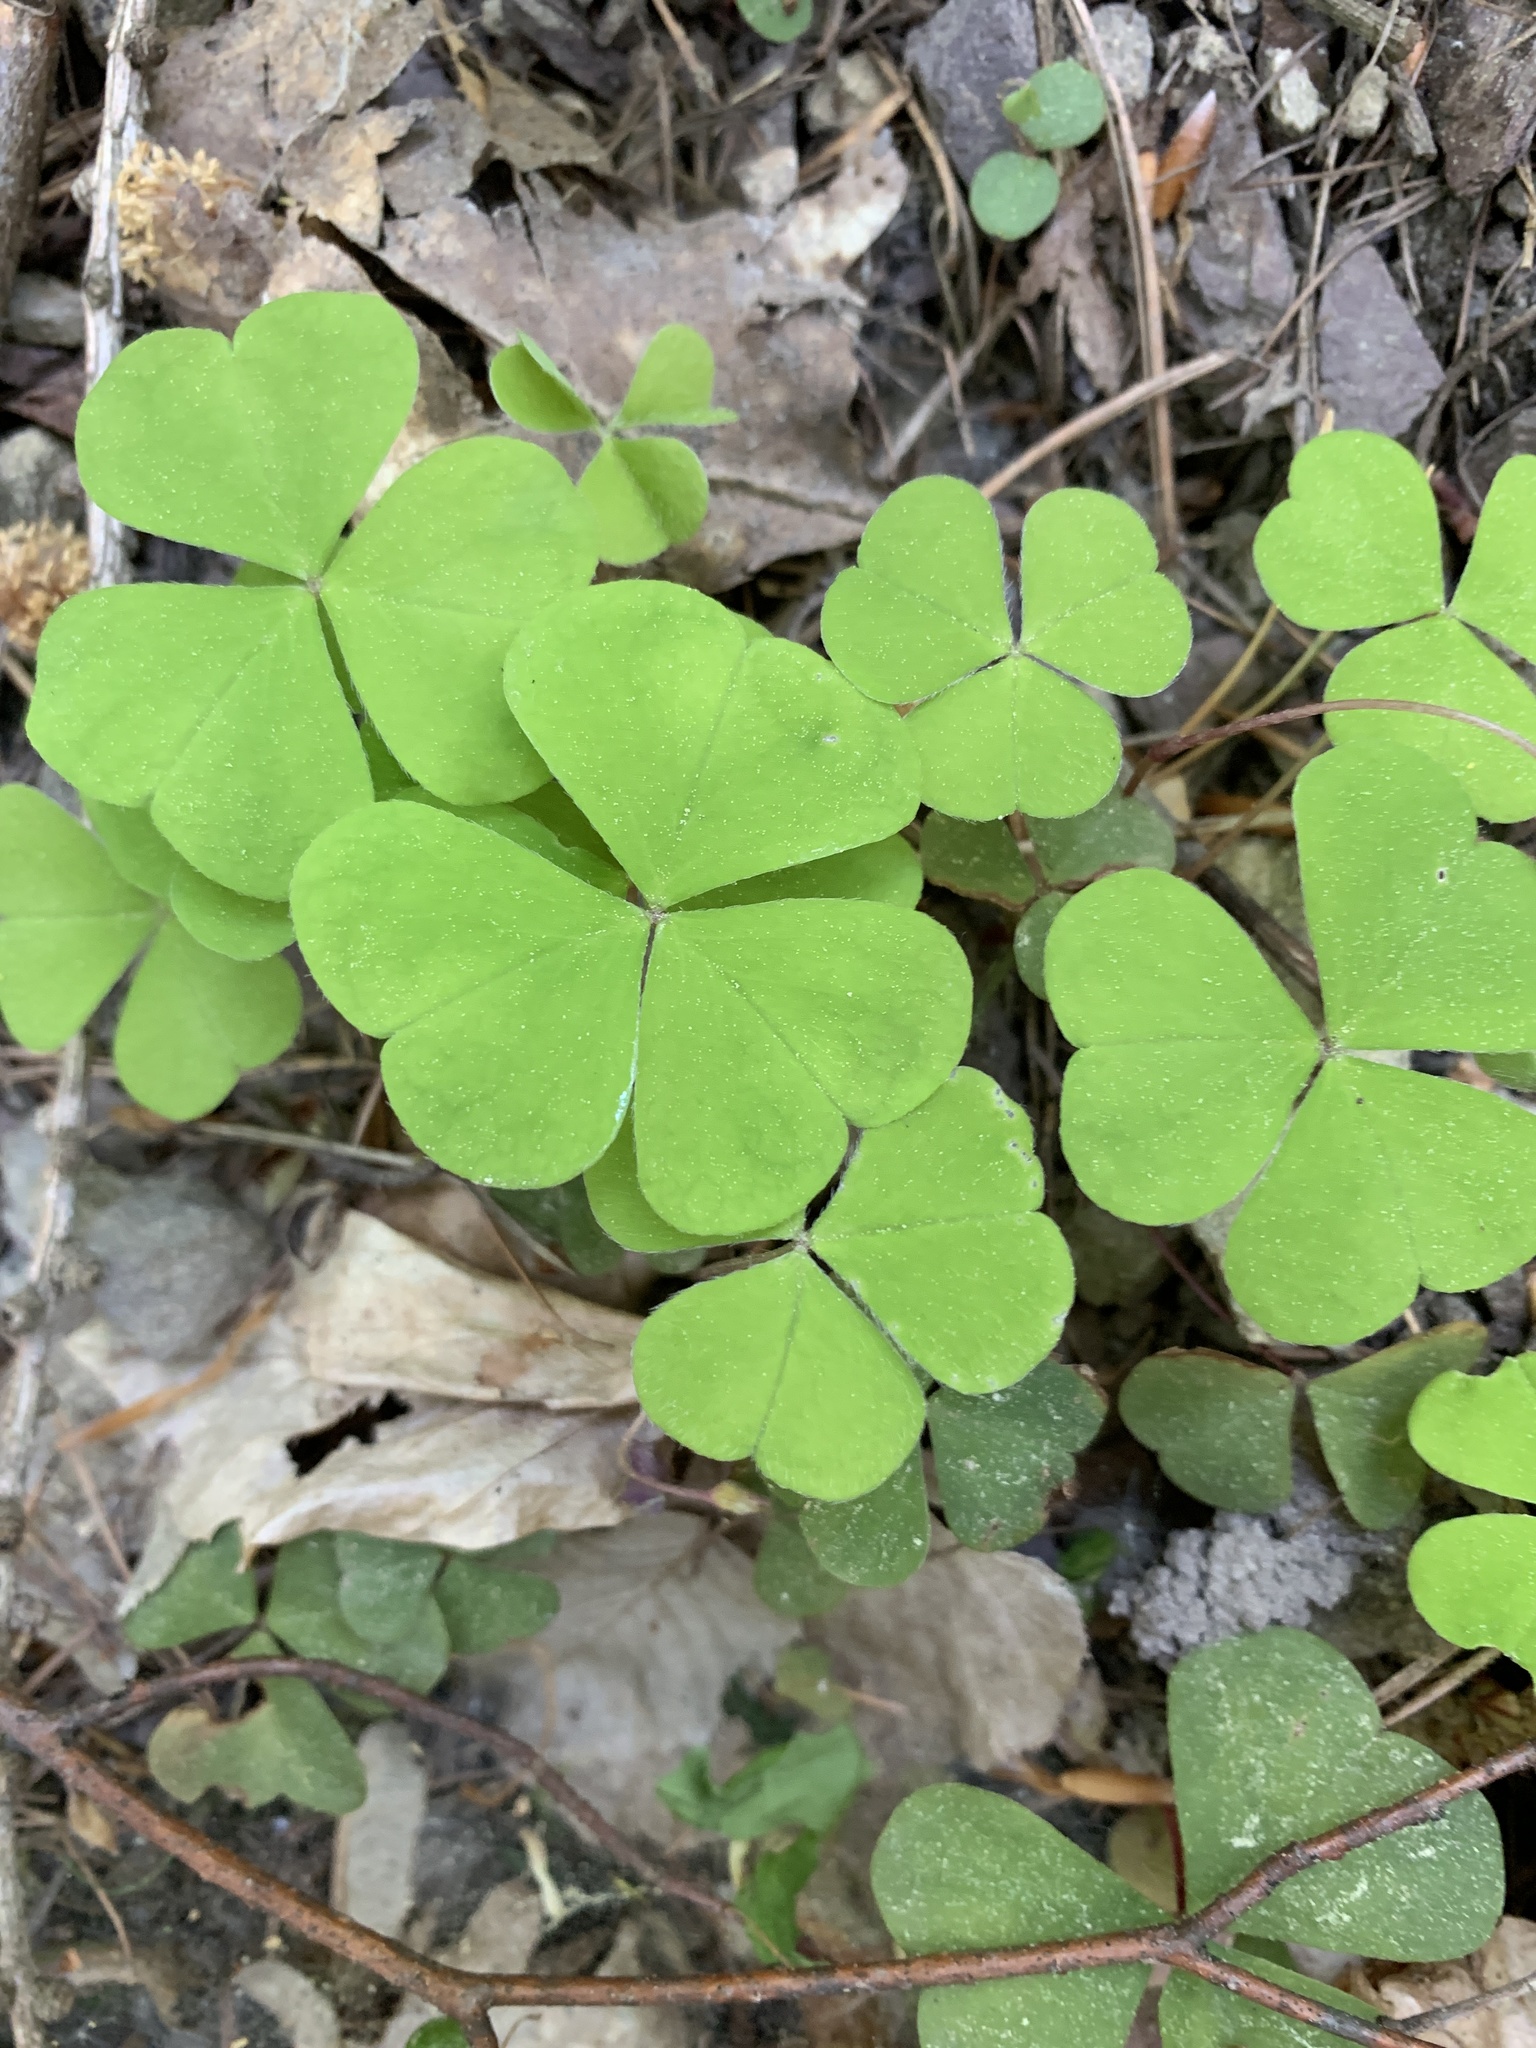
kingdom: Plantae
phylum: Tracheophyta
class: Magnoliopsida
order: Oxalidales
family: Oxalidaceae
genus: Oxalis
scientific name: Oxalis acetosella
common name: Wood-sorrel
